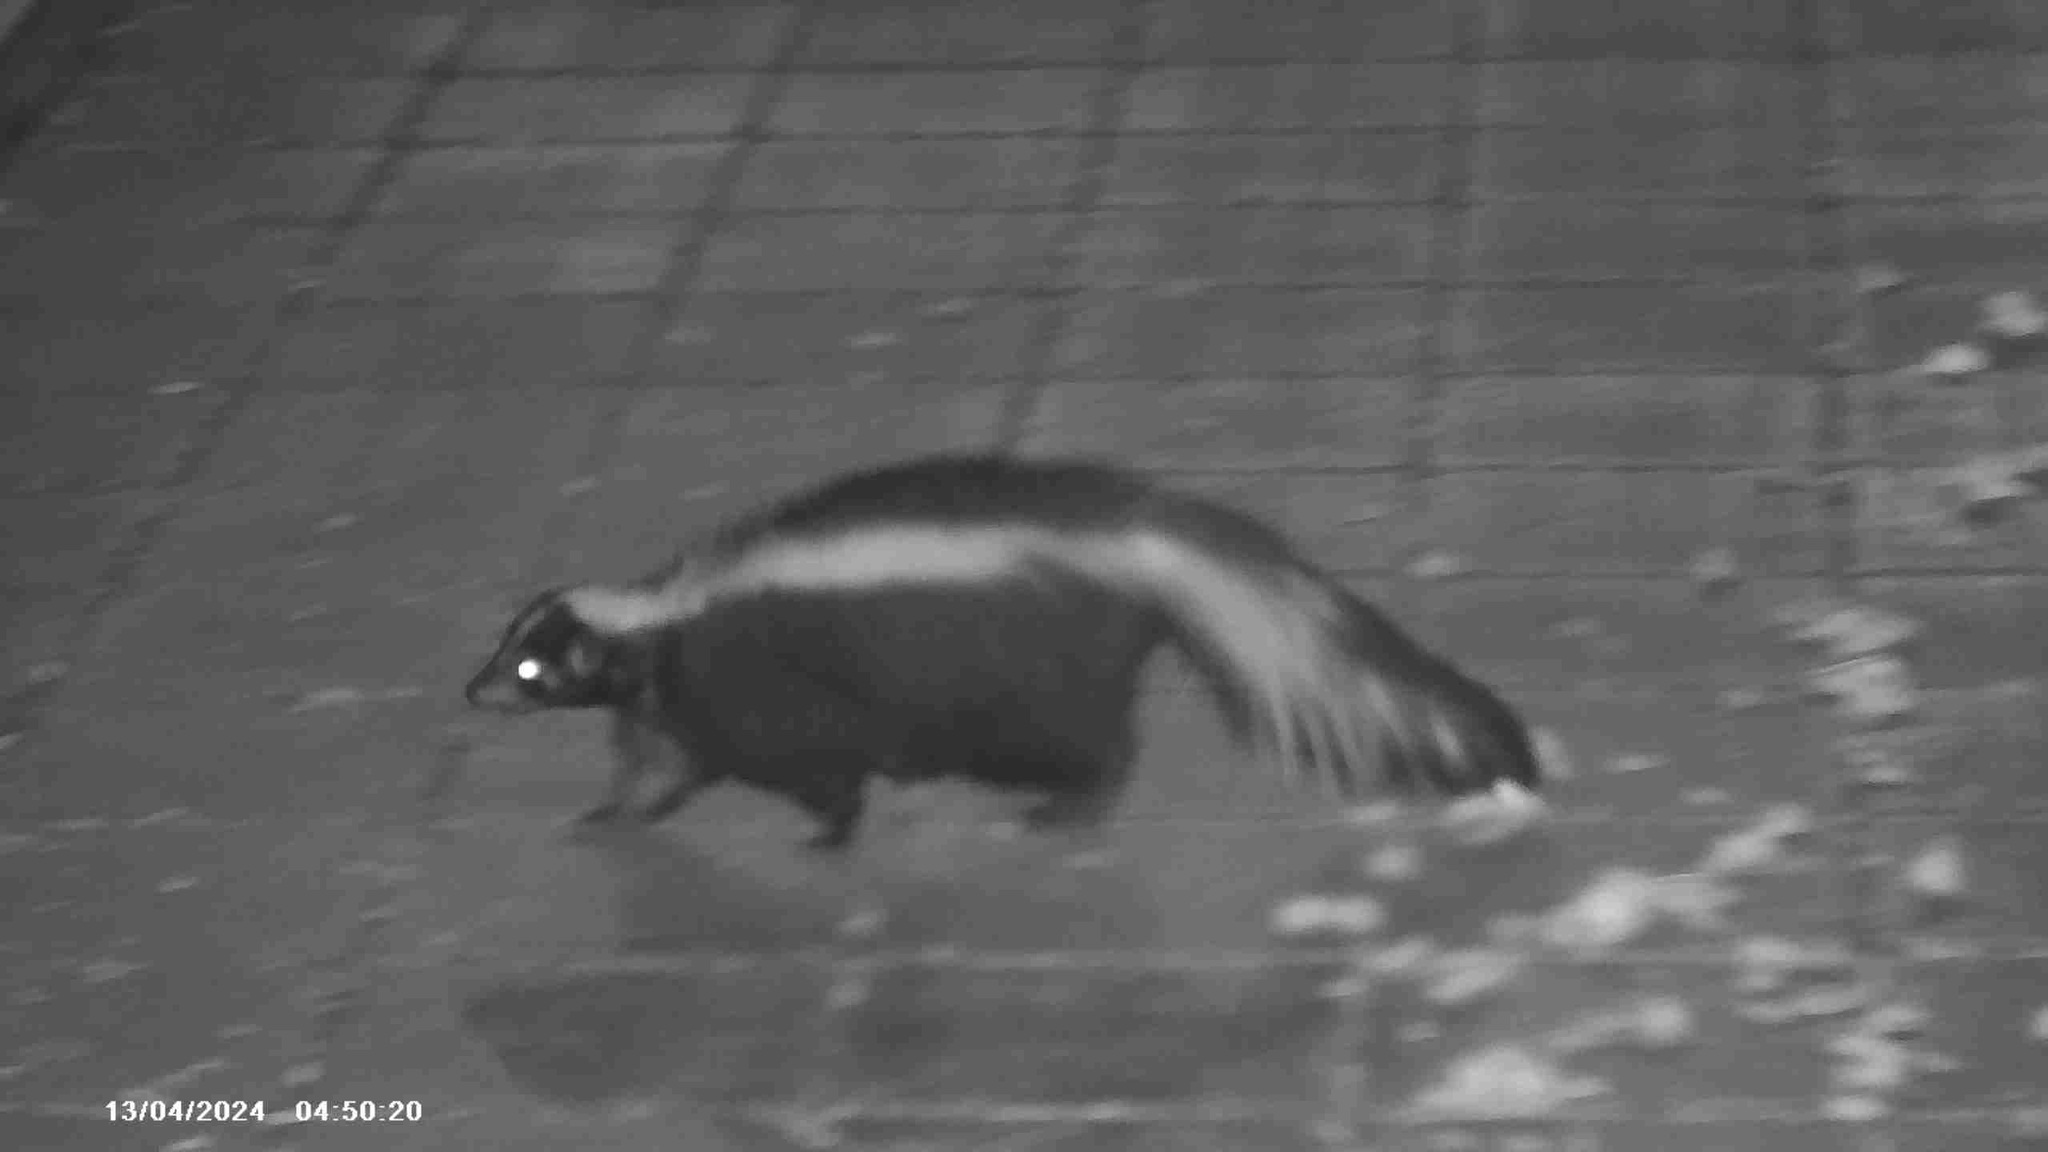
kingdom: Animalia
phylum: Chordata
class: Mammalia
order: Carnivora
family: Mephitidae
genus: Mephitis
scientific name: Mephitis mephitis
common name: Striped skunk
